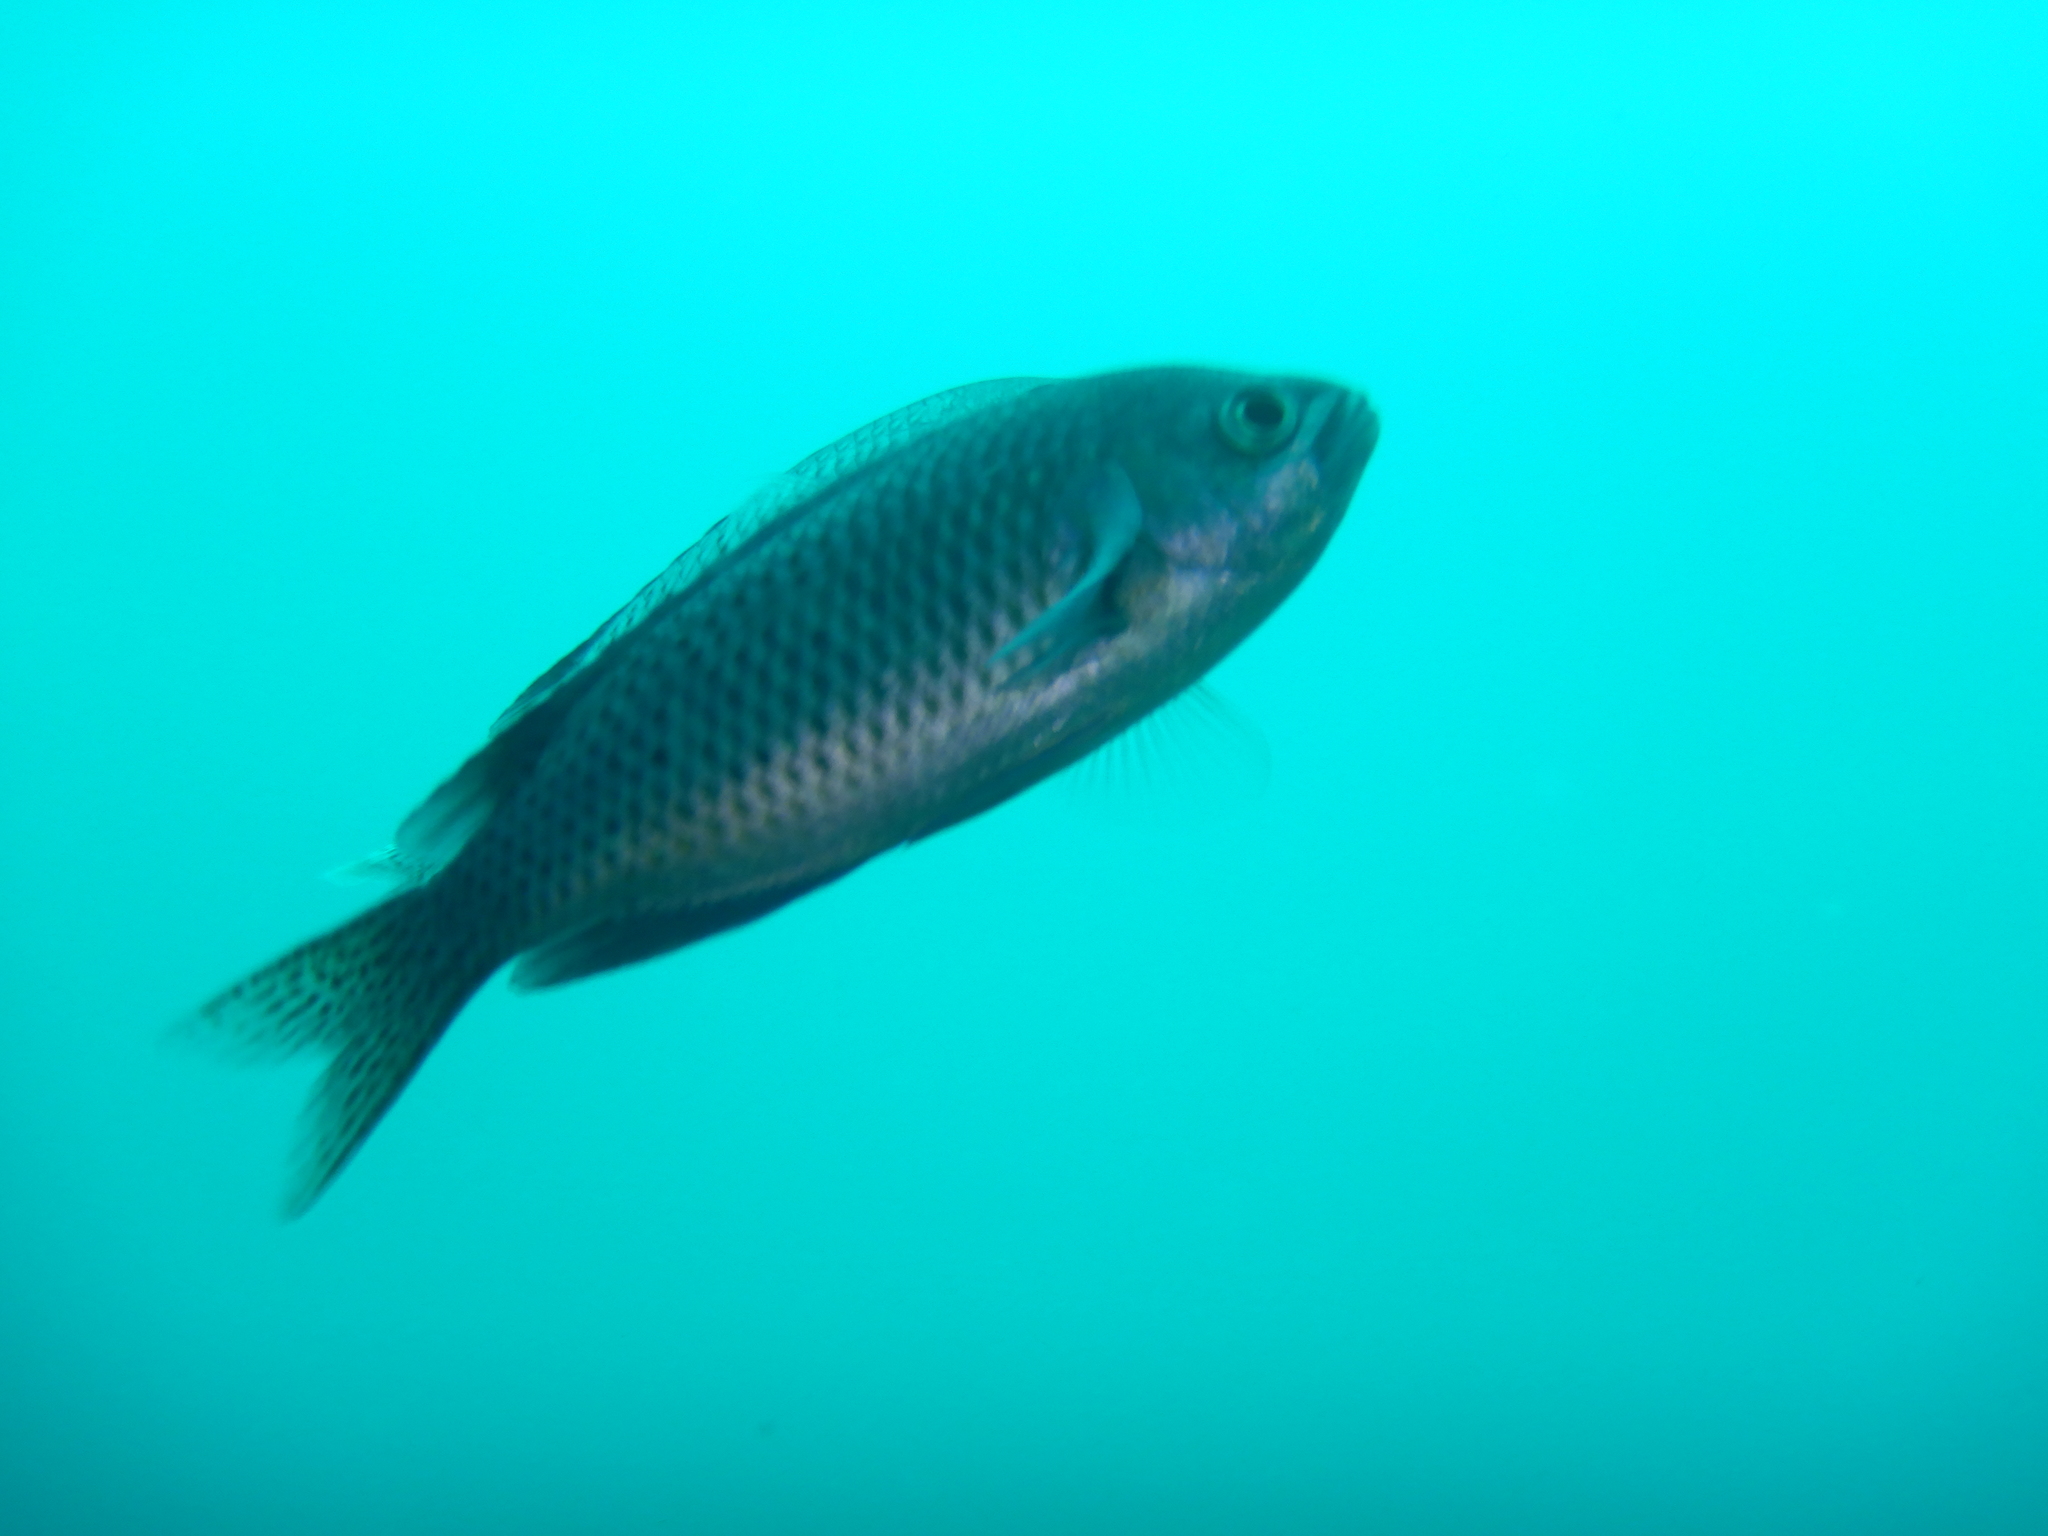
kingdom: Animalia
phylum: Chordata
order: Perciformes
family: Pomacentridae
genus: Chromis
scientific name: Chromis punctipinnis
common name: Blacksmith
